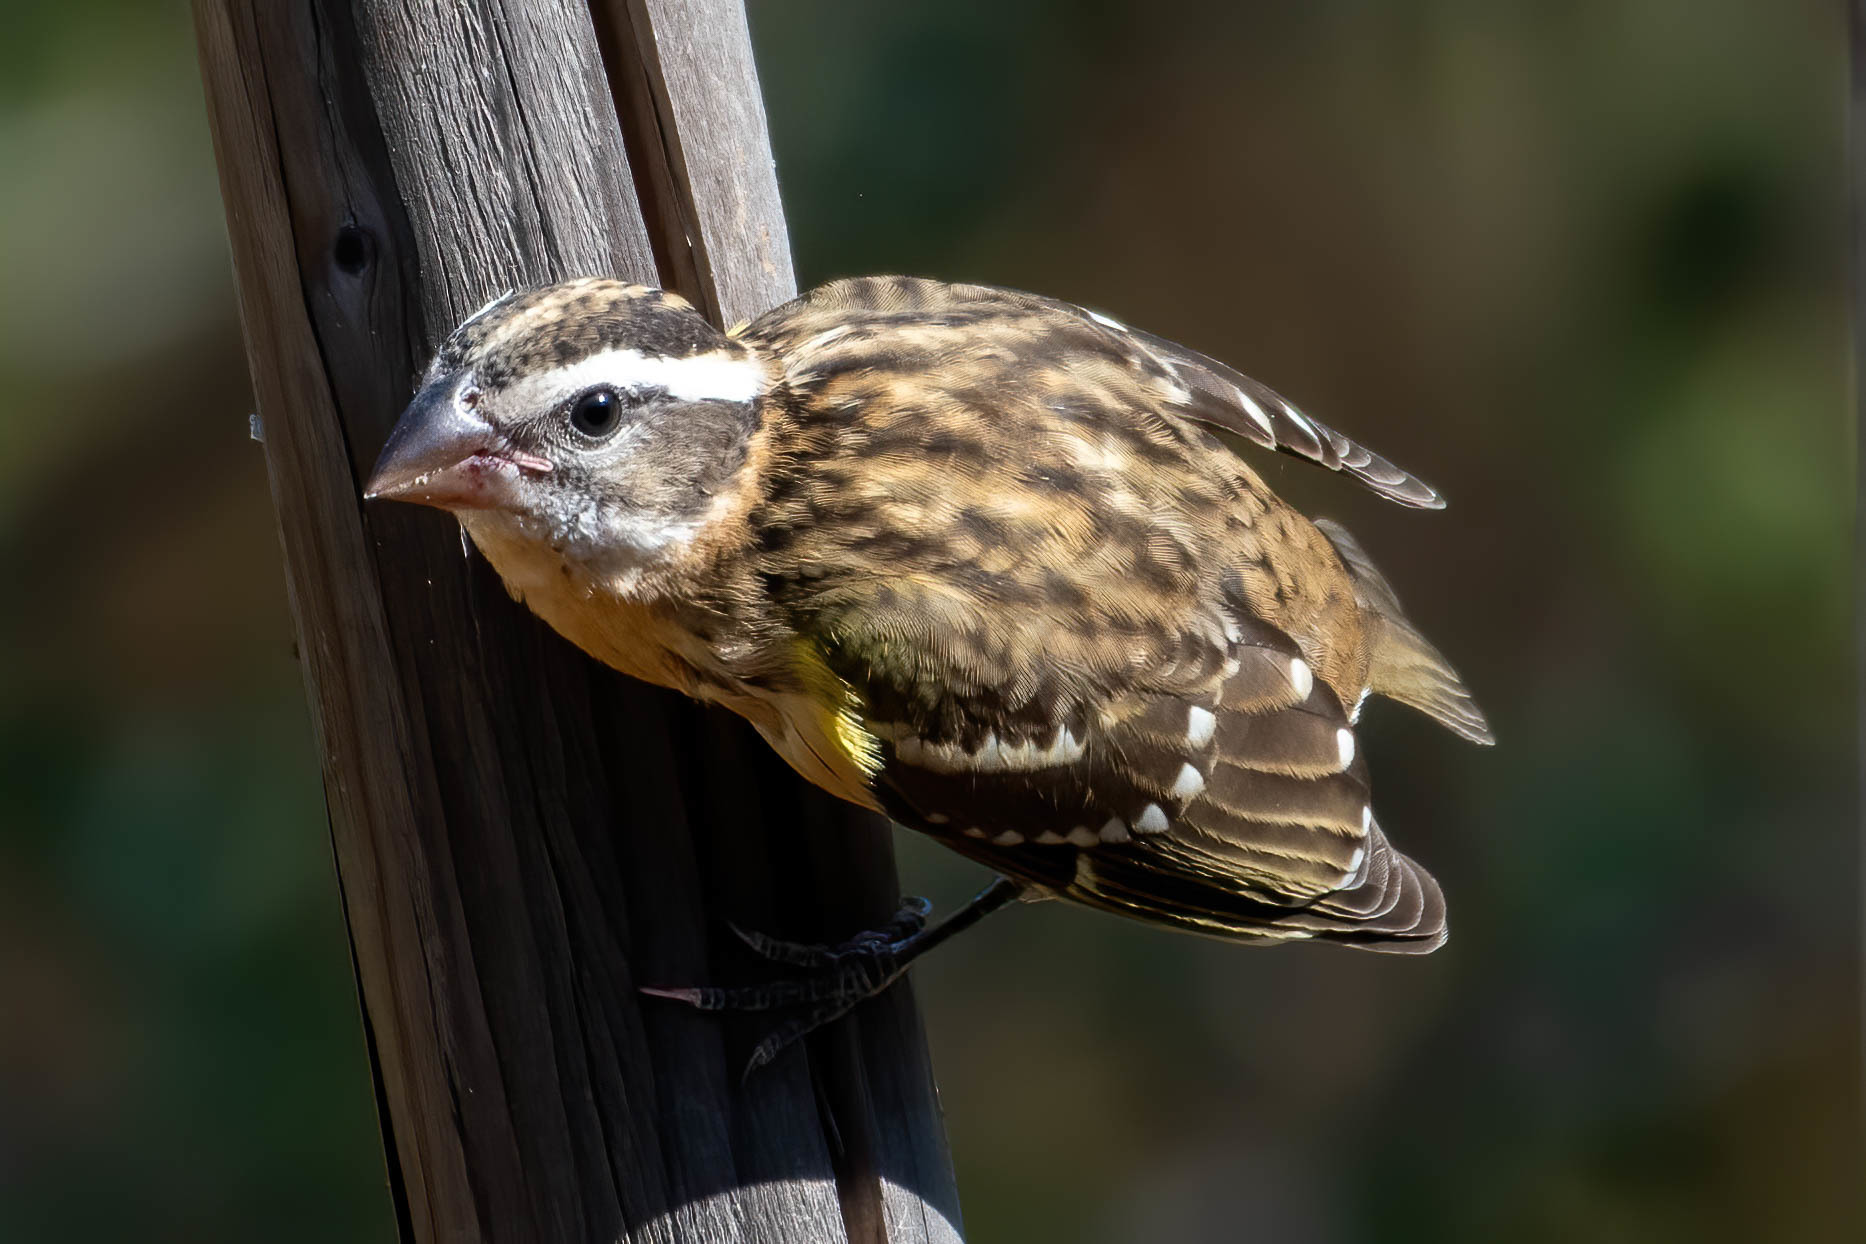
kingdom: Animalia
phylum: Chordata
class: Aves
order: Passeriformes
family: Cardinalidae
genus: Pheucticus
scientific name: Pheucticus melanocephalus
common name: Black-headed grosbeak
